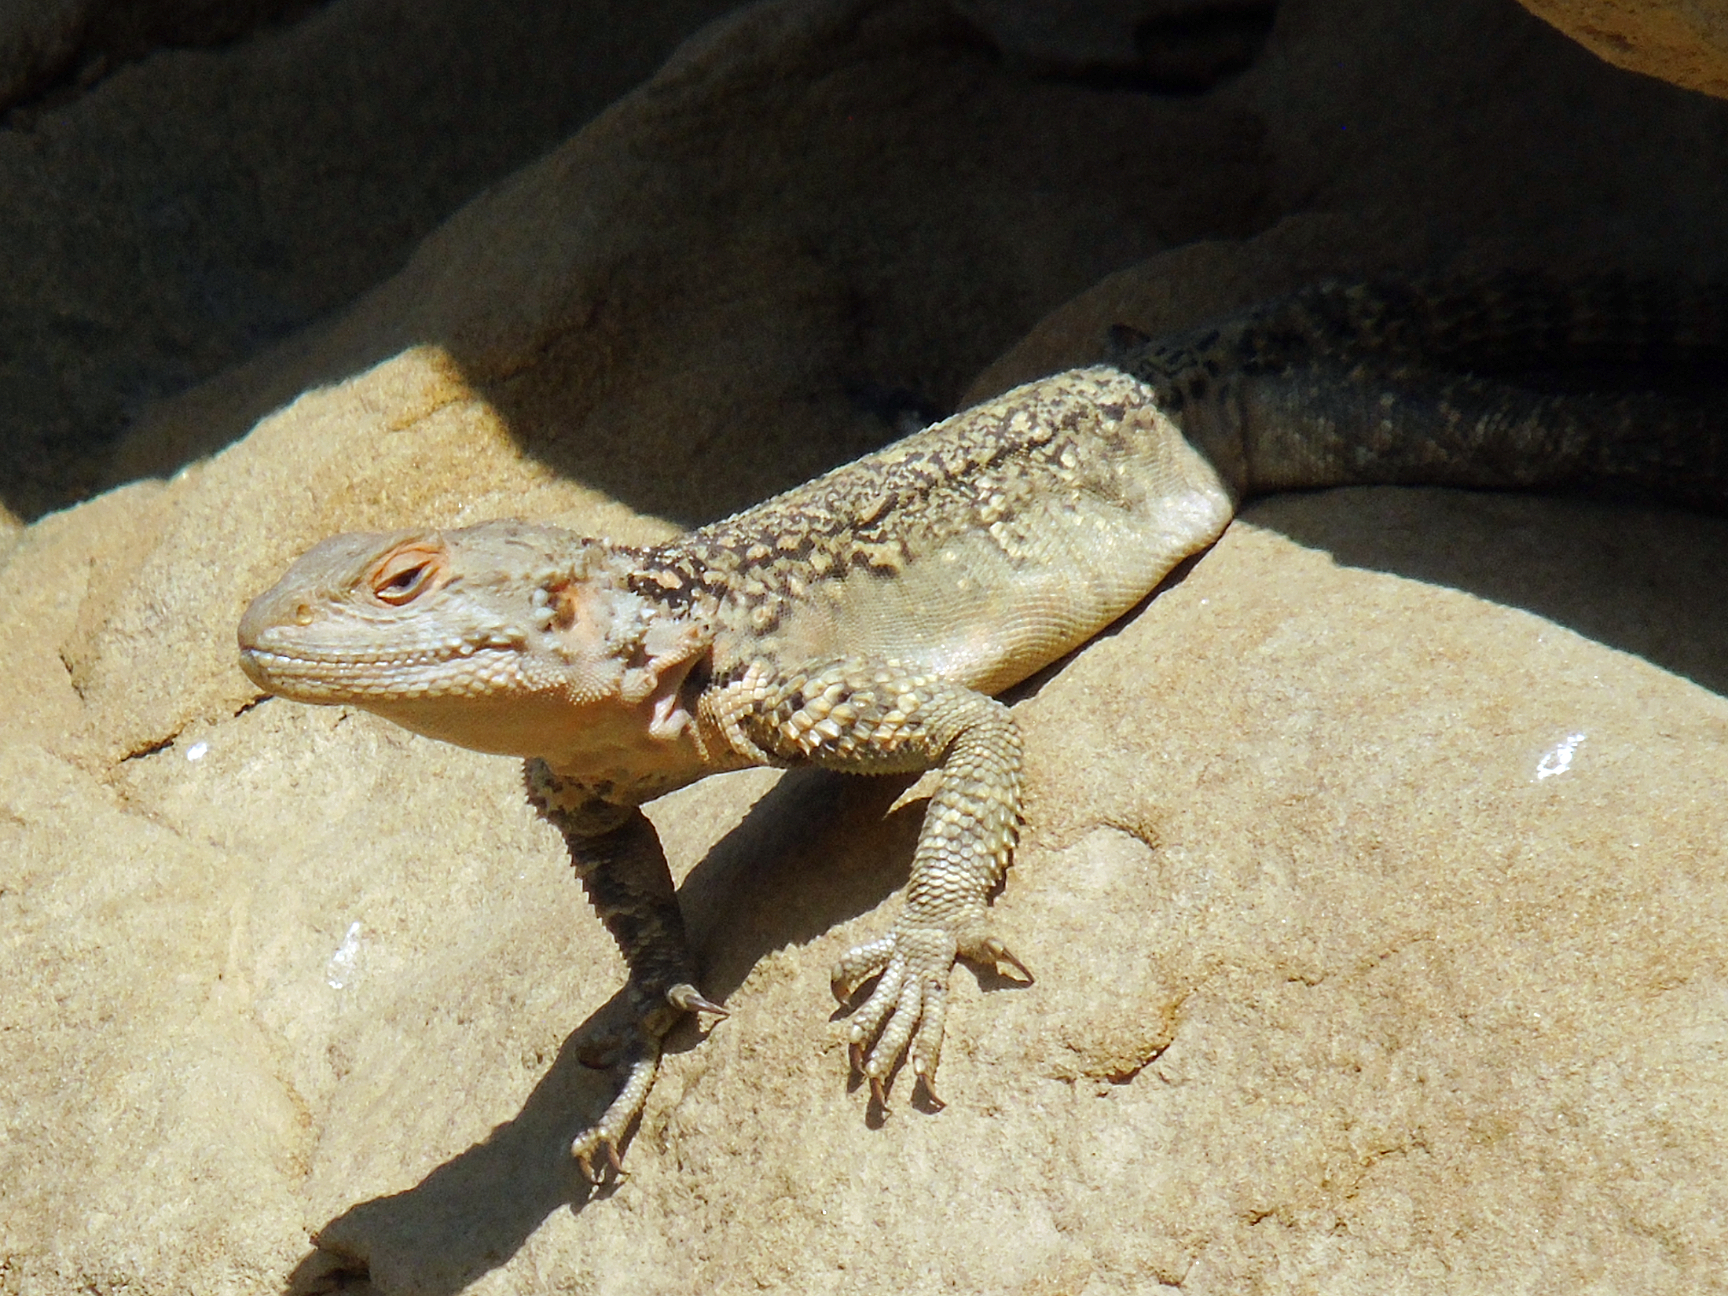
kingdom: Animalia
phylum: Chordata
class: Squamata
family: Agamidae
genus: Paralaudakia
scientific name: Paralaudakia caucasia
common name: Caucasian agama
